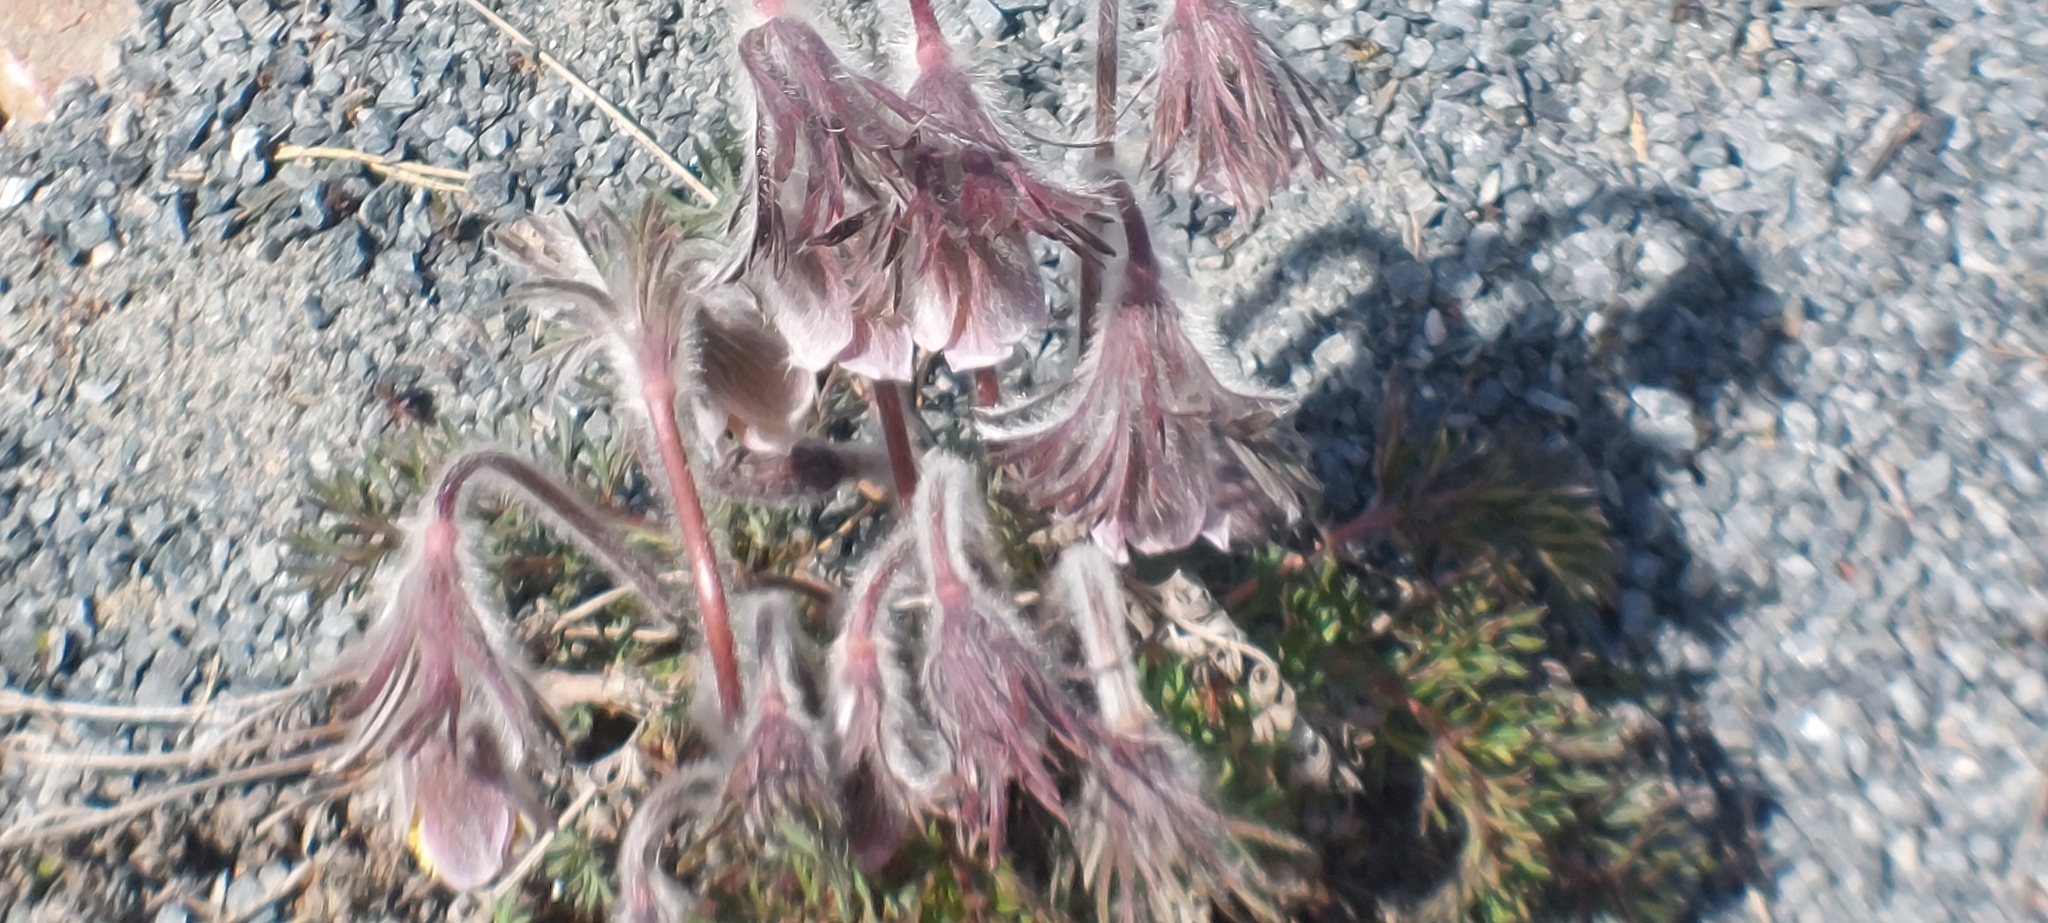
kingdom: Plantae
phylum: Tracheophyta
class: Magnoliopsida
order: Ranunculales
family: Ranunculaceae
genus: Pulsatilla
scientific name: Pulsatilla pratensis
